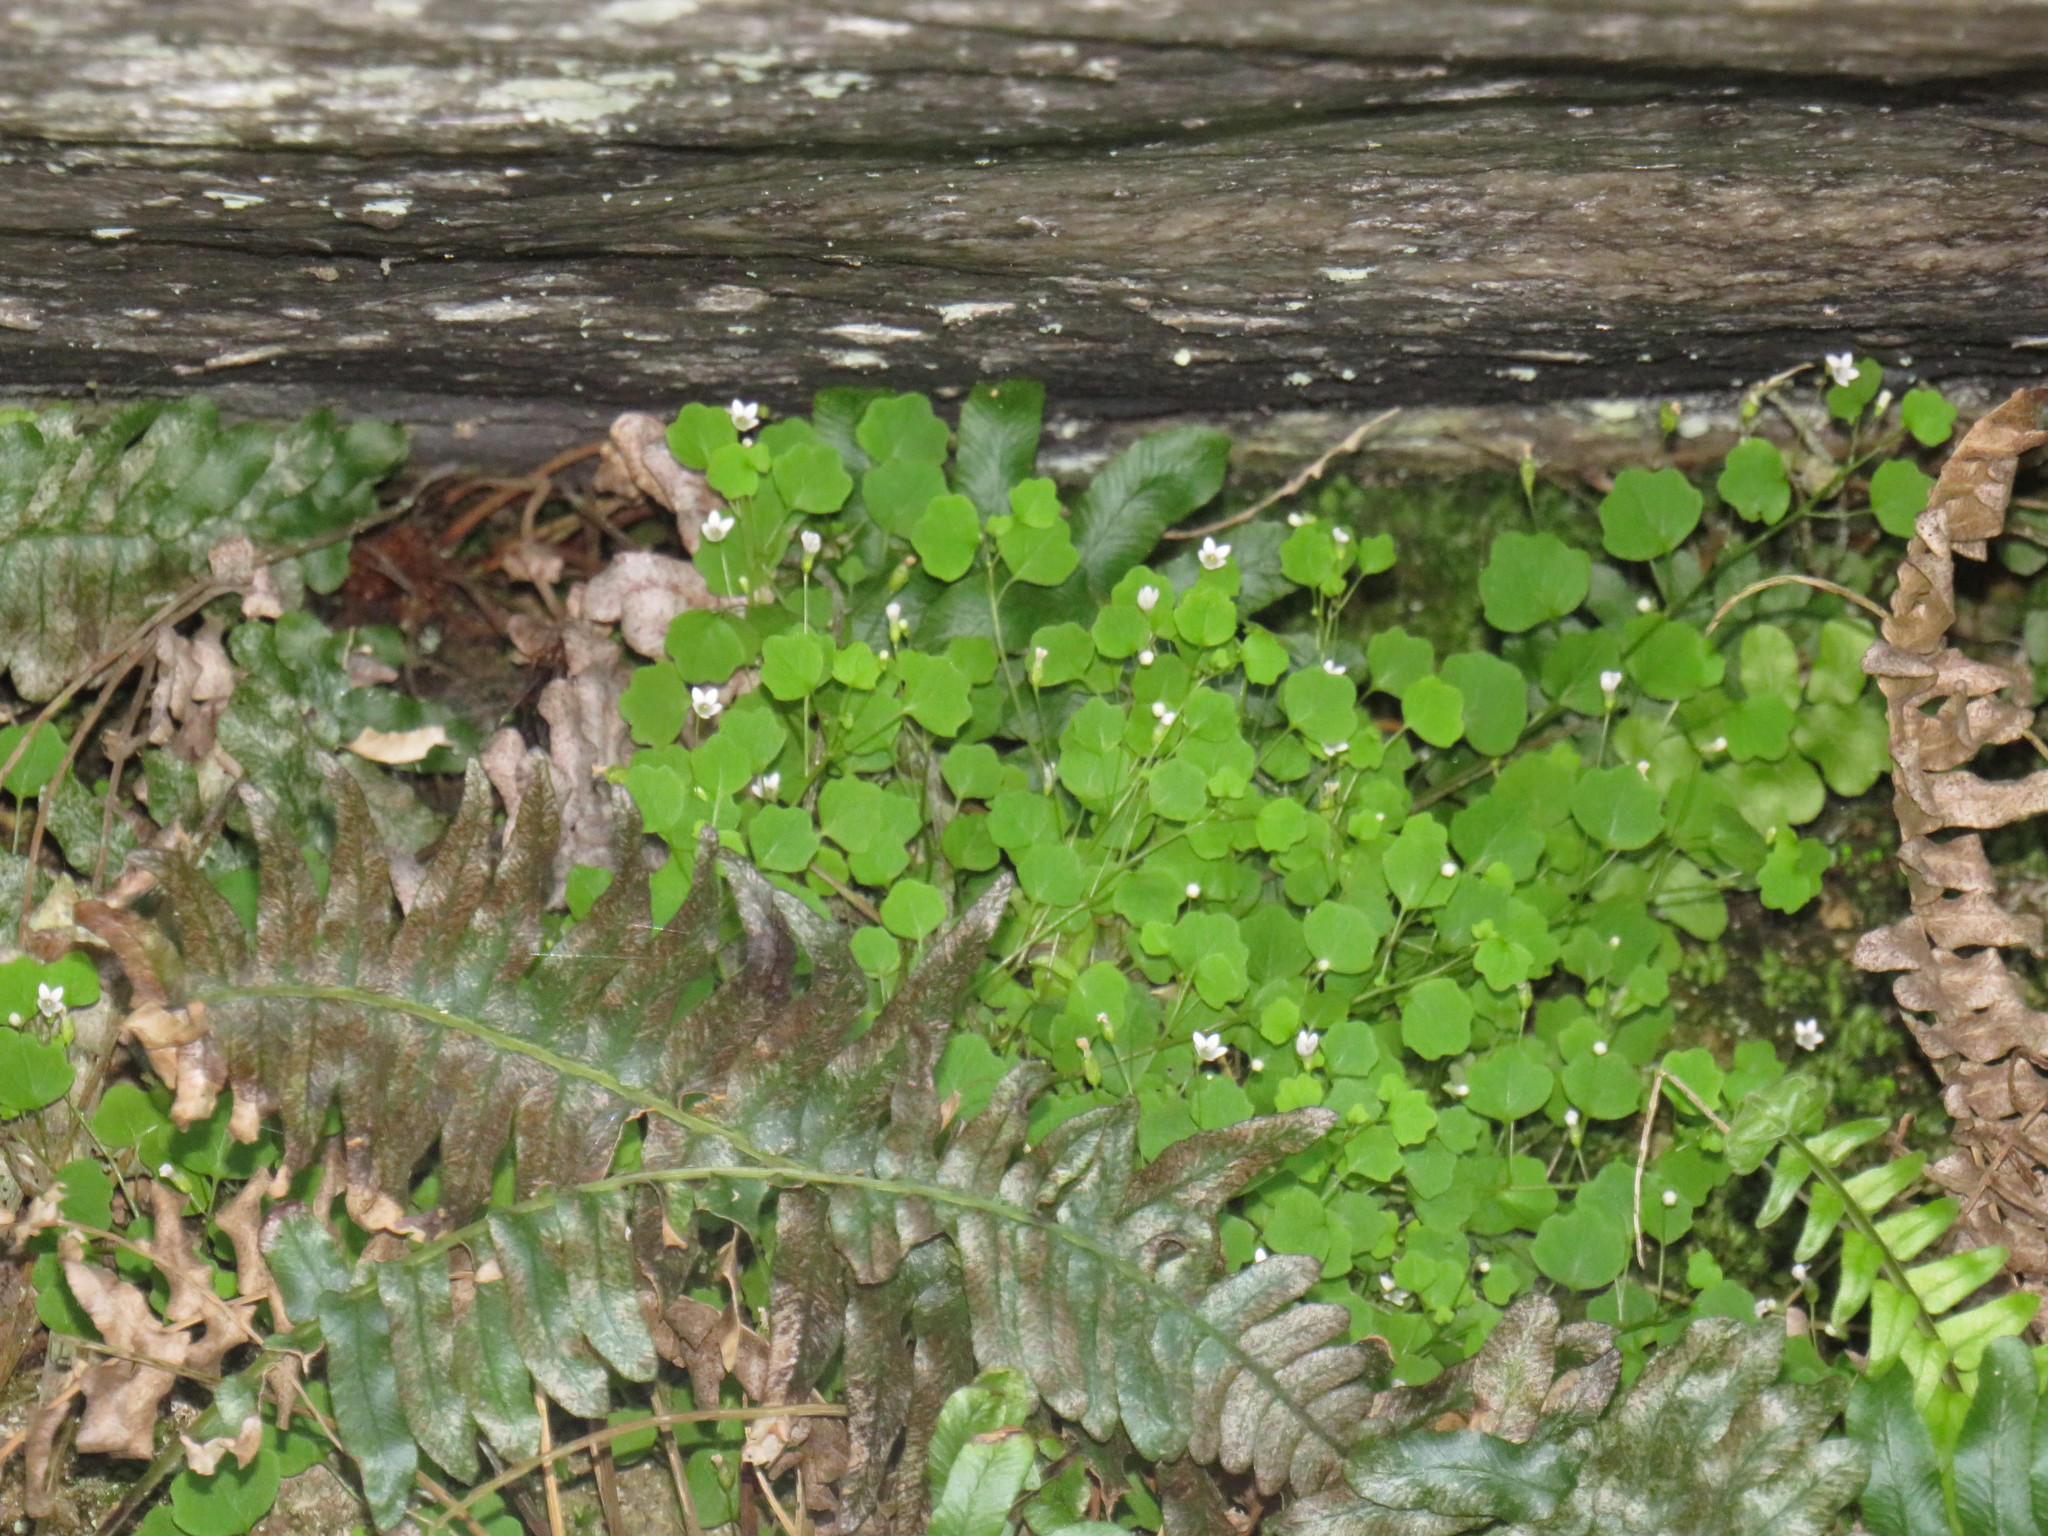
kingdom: Plantae
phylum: Tracheophyta
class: Magnoliopsida
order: Asterales
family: Campanulaceae
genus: Wimmerella
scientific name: Wimmerella pygmaea
